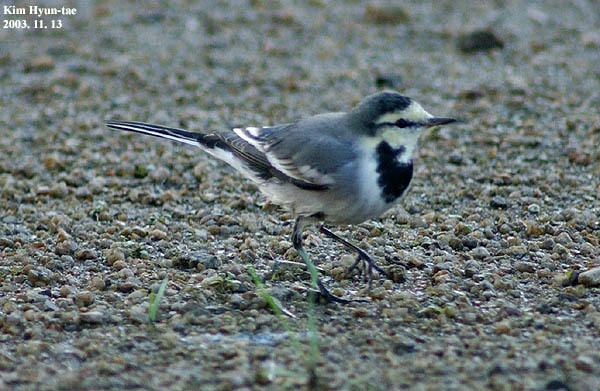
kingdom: Animalia
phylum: Chordata
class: Aves
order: Passeriformes
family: Motacillidae
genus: Motacilla
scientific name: Motacilla alba
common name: White wagtail
